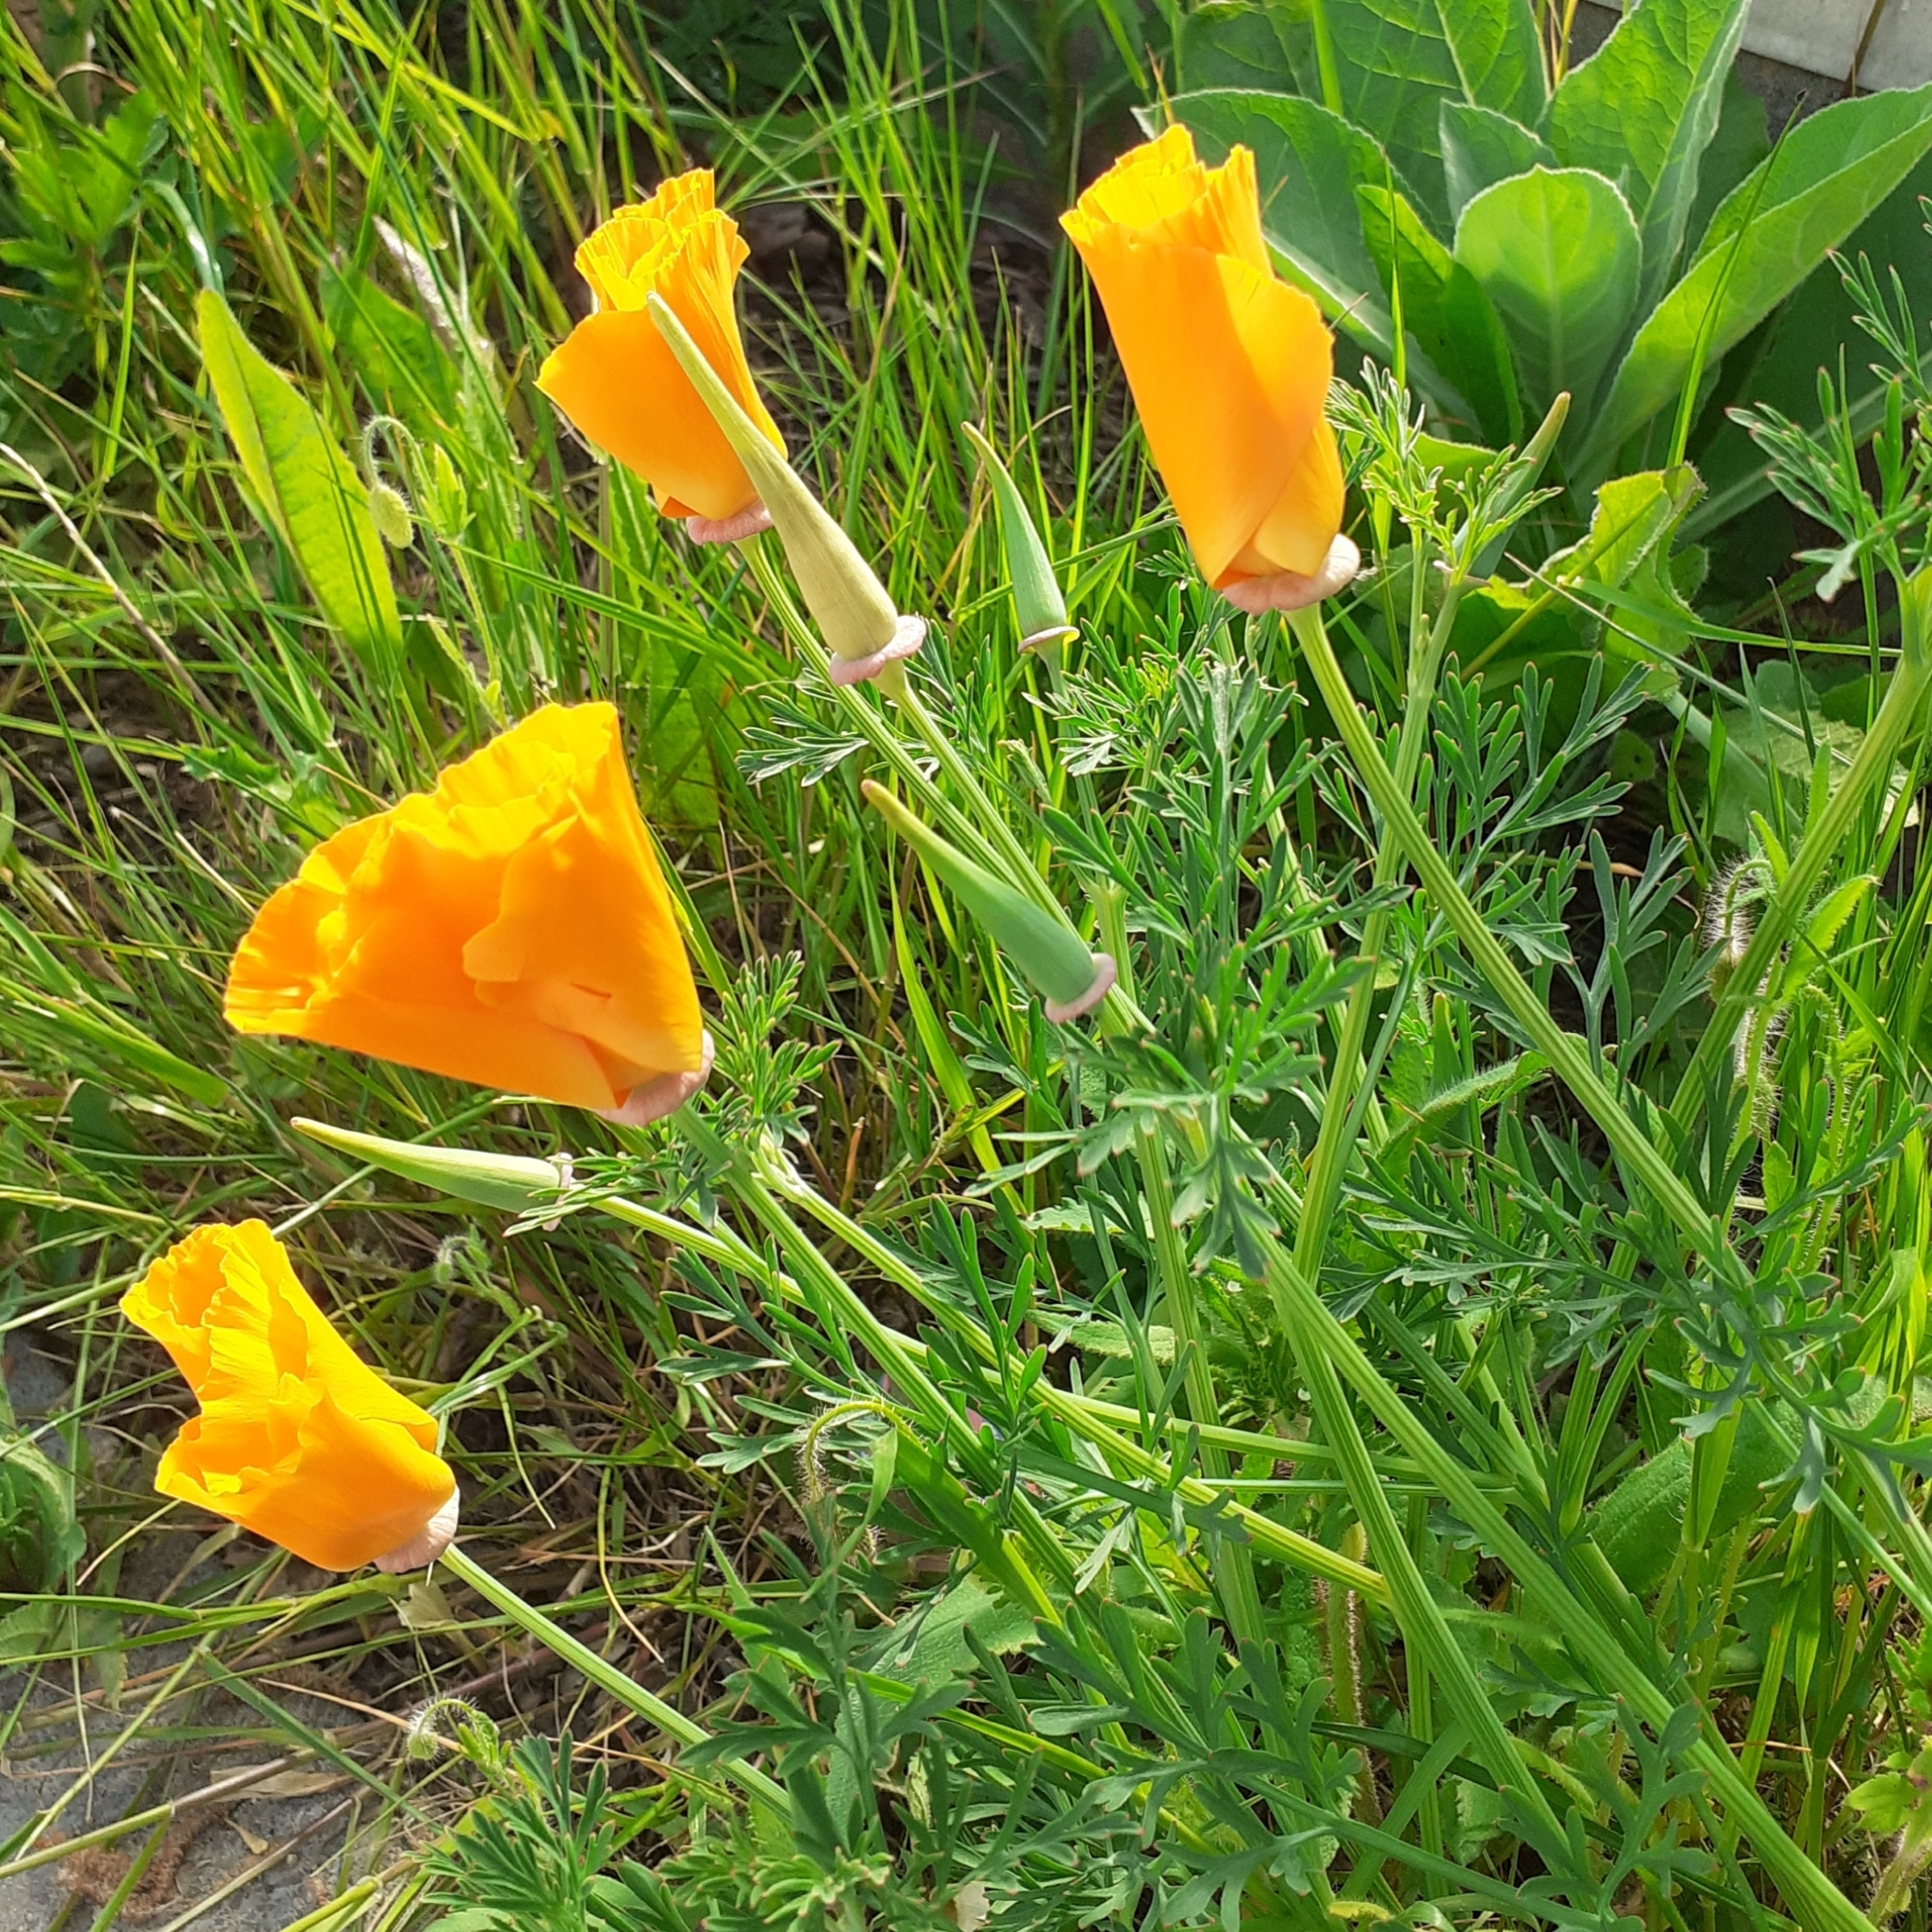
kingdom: Plantae
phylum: Tracheophyta
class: Magnoliopsida
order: Ranunculales
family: Papaveraceae
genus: Eschscholzia
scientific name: Eschscholzia californica
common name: California poppy
